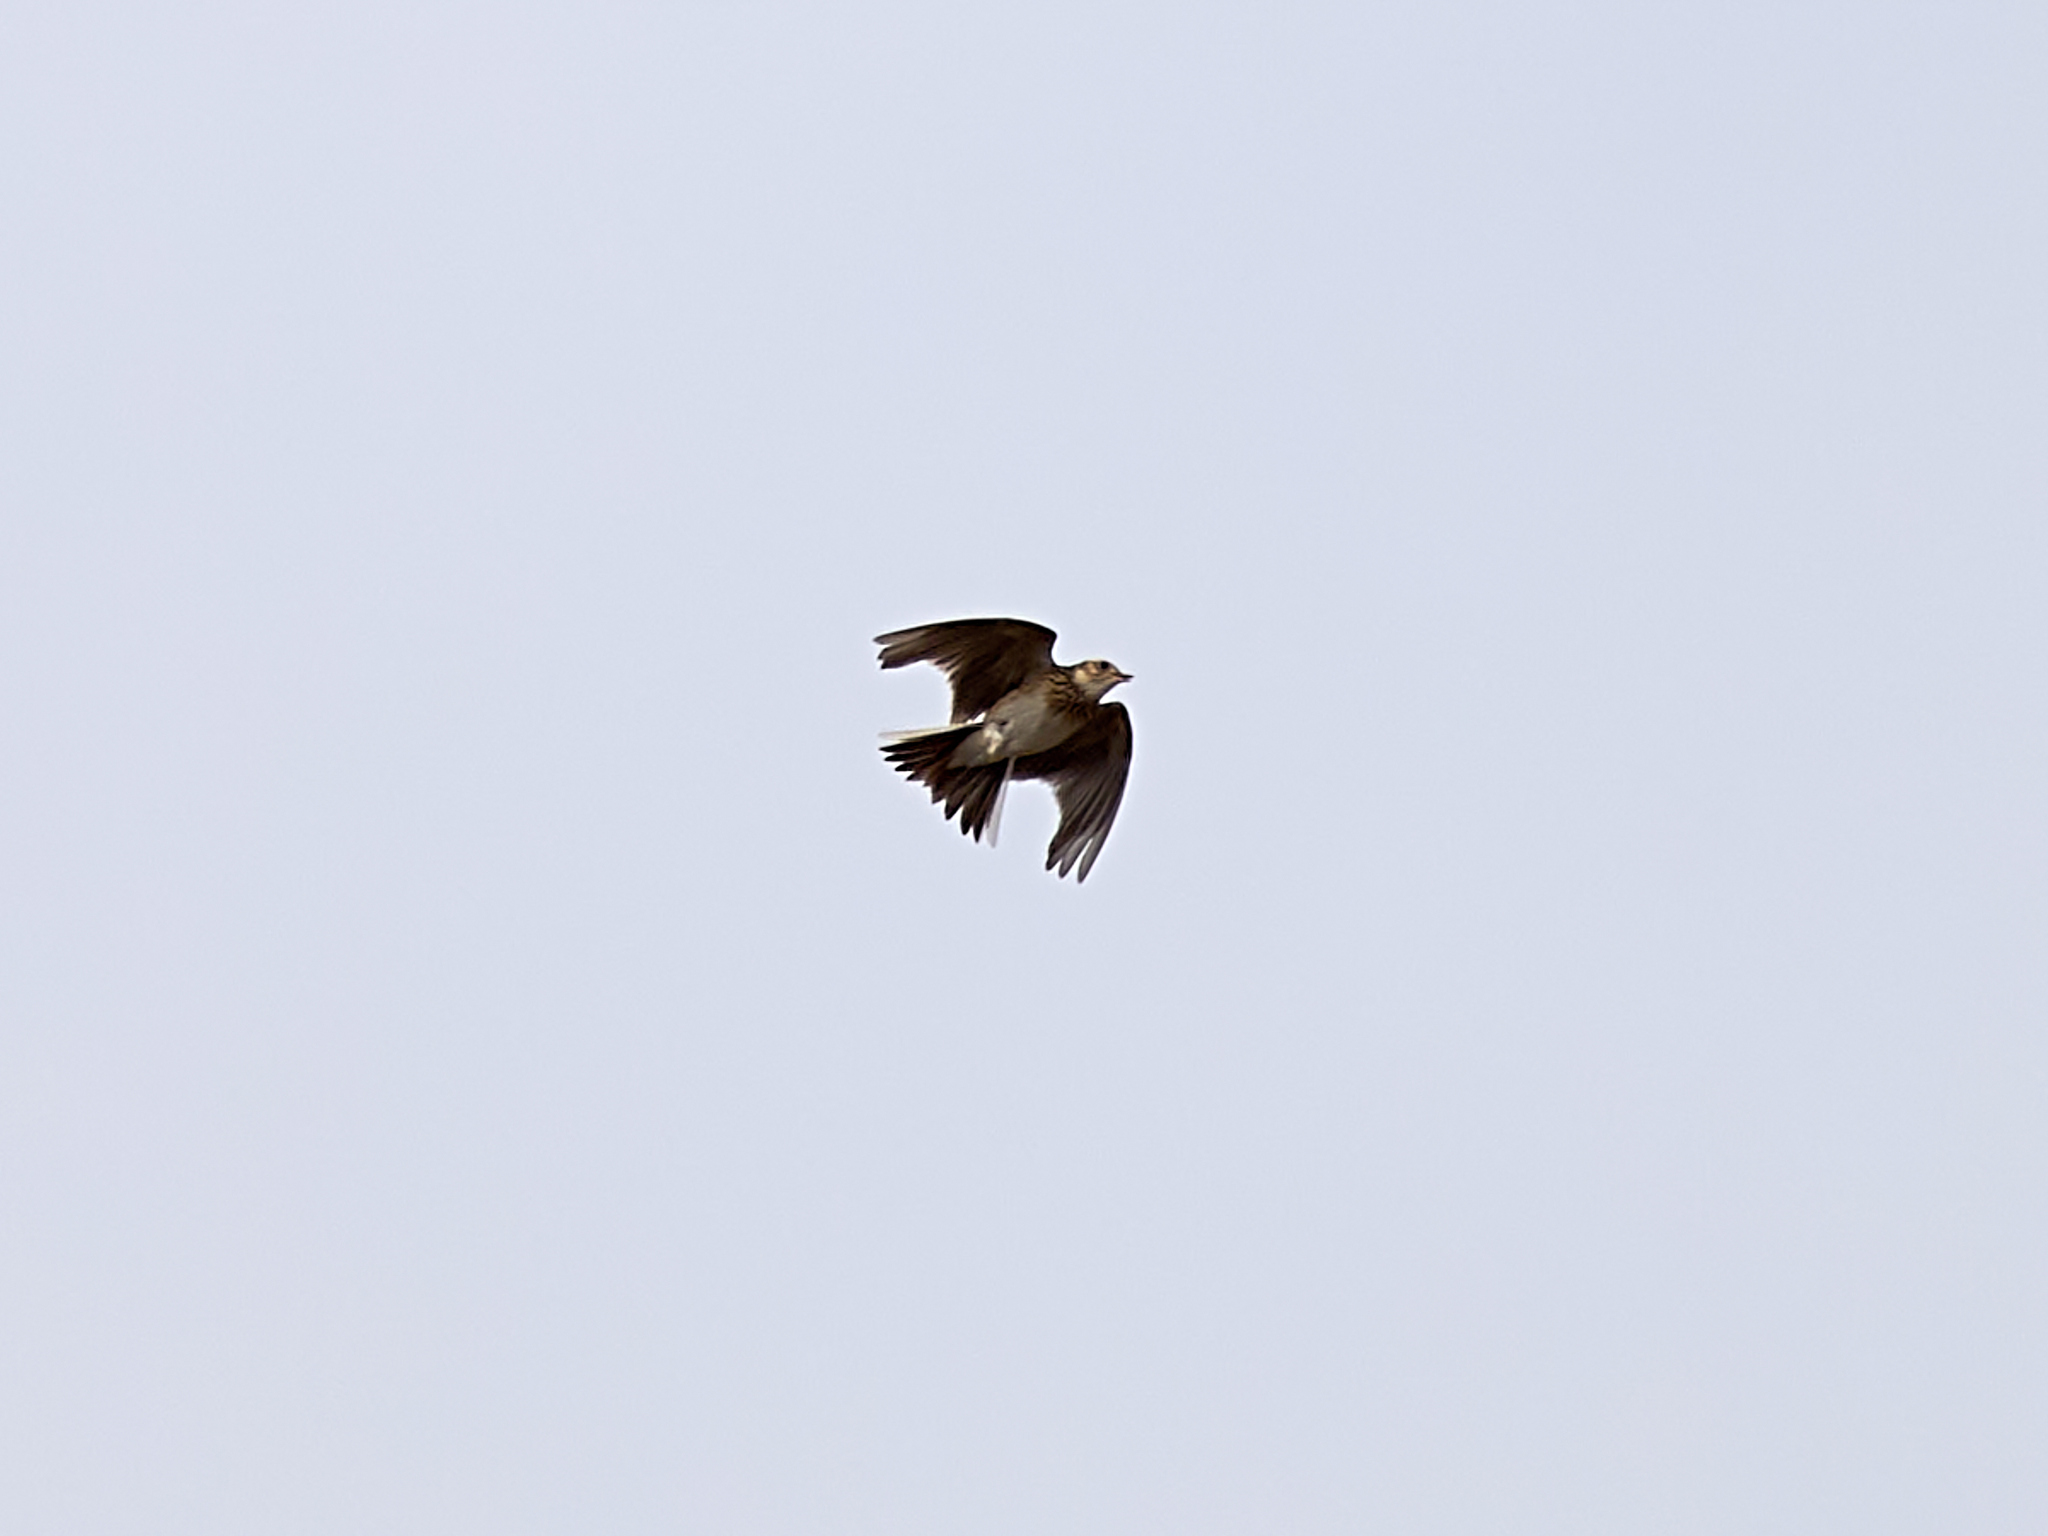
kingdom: Animalia
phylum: Chordata
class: Aves
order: Passeriformes
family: Alaudidae
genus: Alauda
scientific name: Alauda arvensis
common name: Eurasian skylark
